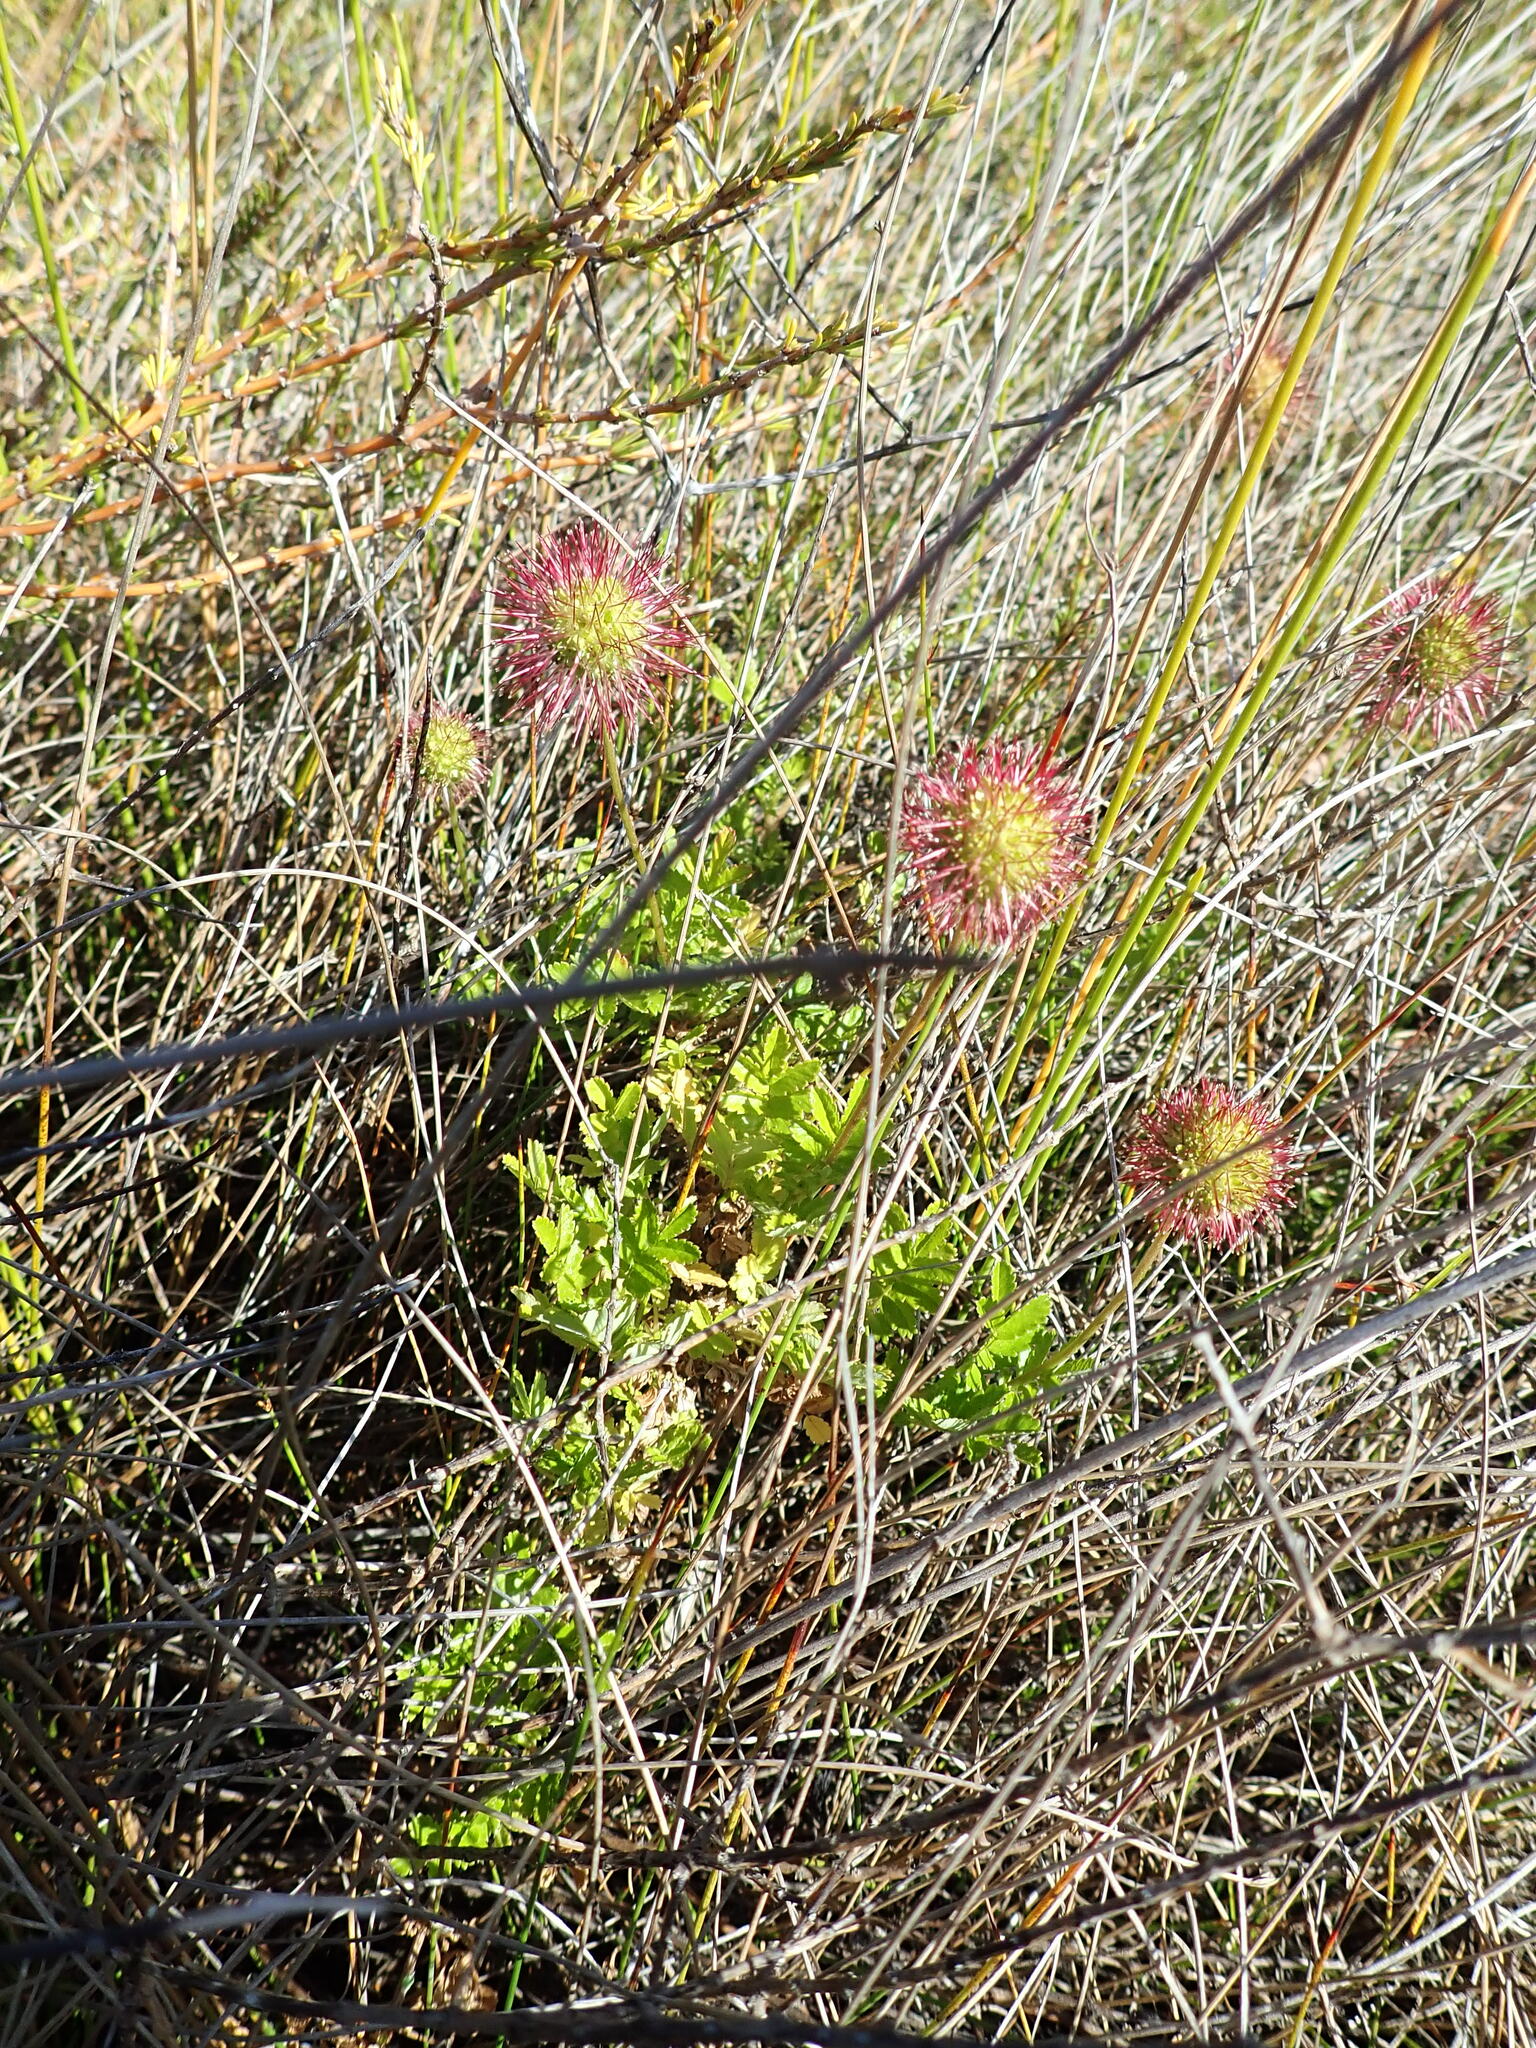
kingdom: Plantae
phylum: Tracheophyta
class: Magnoliopsida
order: Rosales
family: Rosaceae
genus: Acaena
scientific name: Acaena novae-zelandiae
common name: Pirri-pirri-bur
